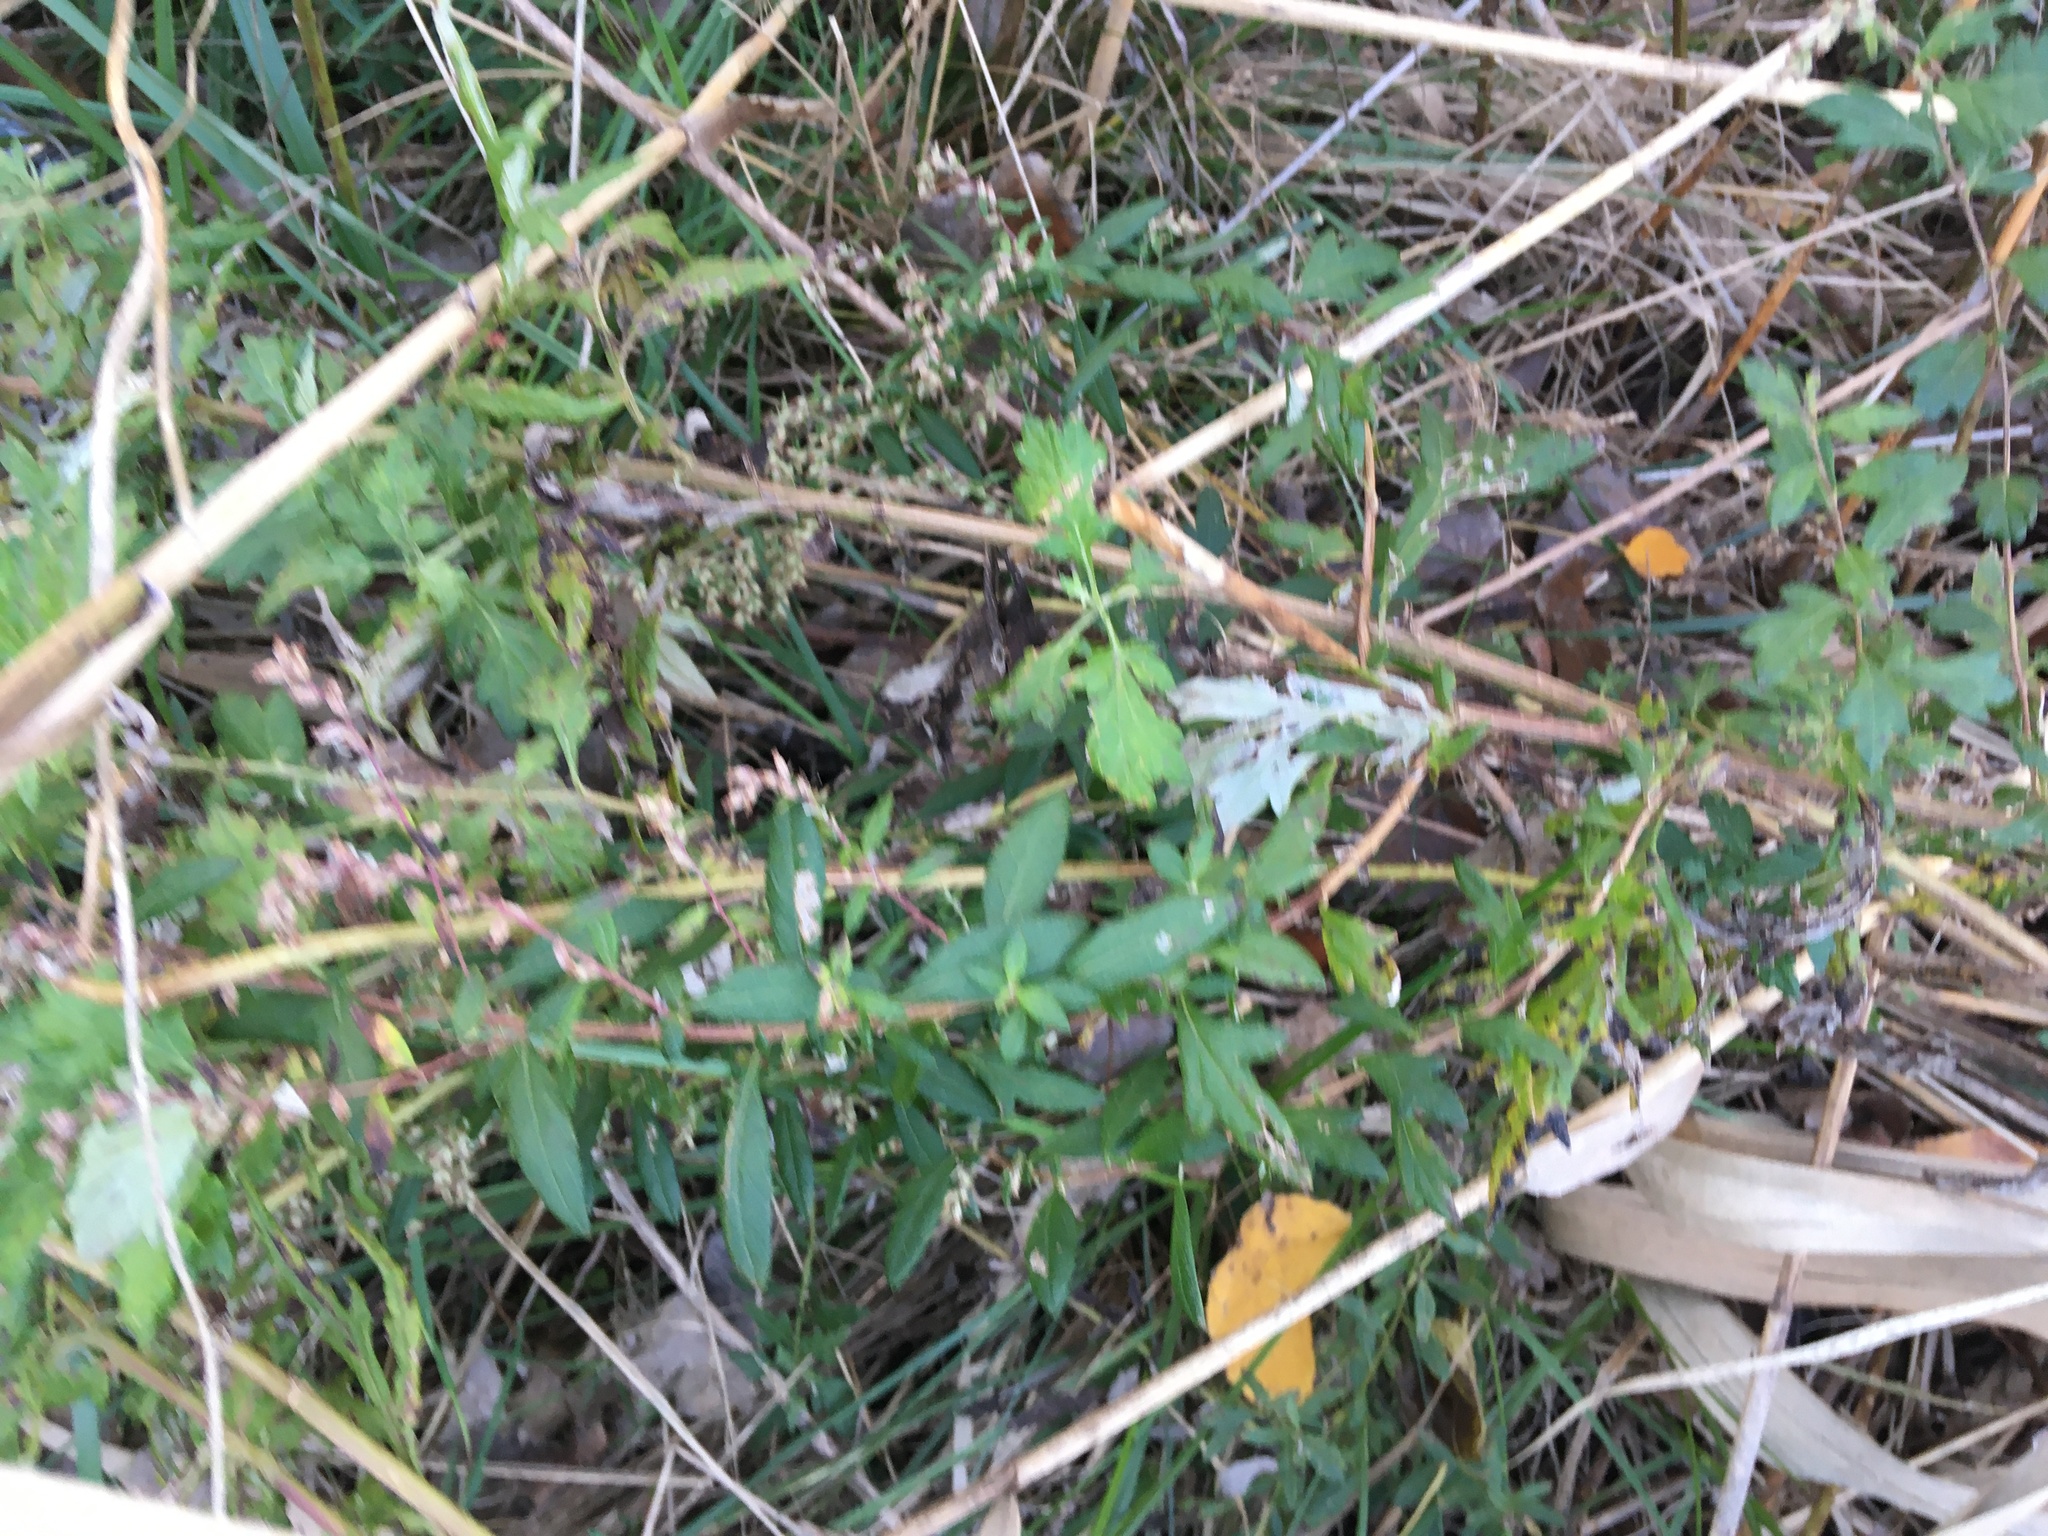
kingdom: Plantae
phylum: Tracheophyta
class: Magnoliopsida
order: Asterales
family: Asteraceae
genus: Artemisia
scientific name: Artemisia vulgaris
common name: Mugwort
